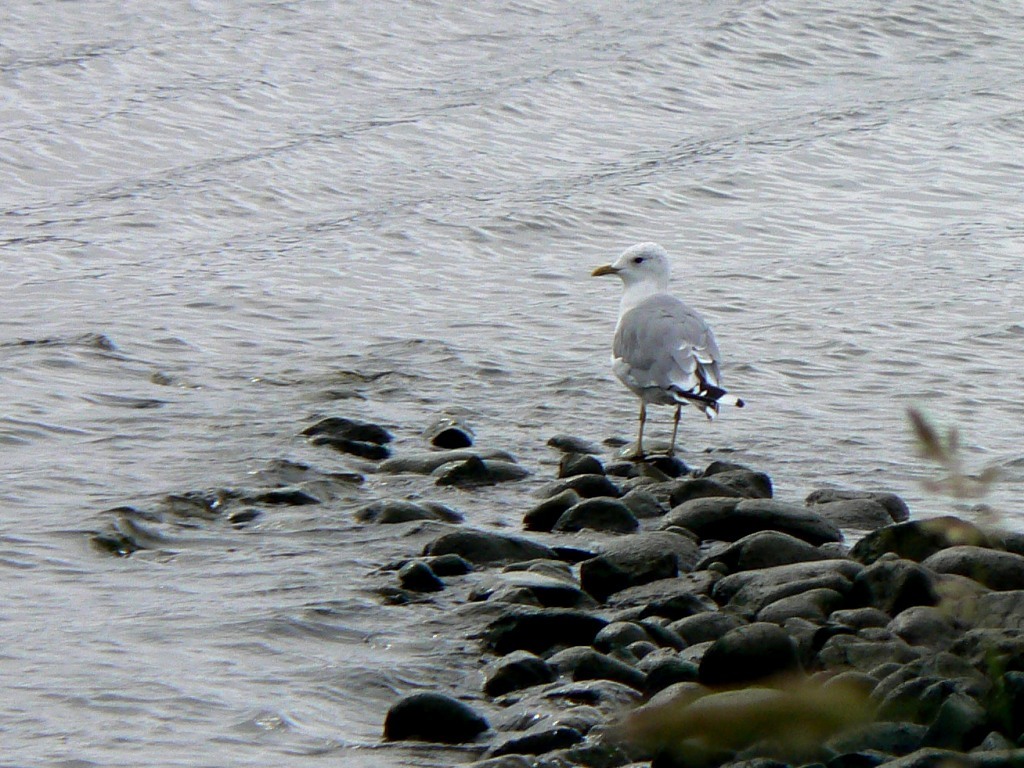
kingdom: Animalia
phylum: Chordata
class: Aves
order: Charadriiformes
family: Laridae
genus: Larus
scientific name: Larus canus
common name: Mew gull
